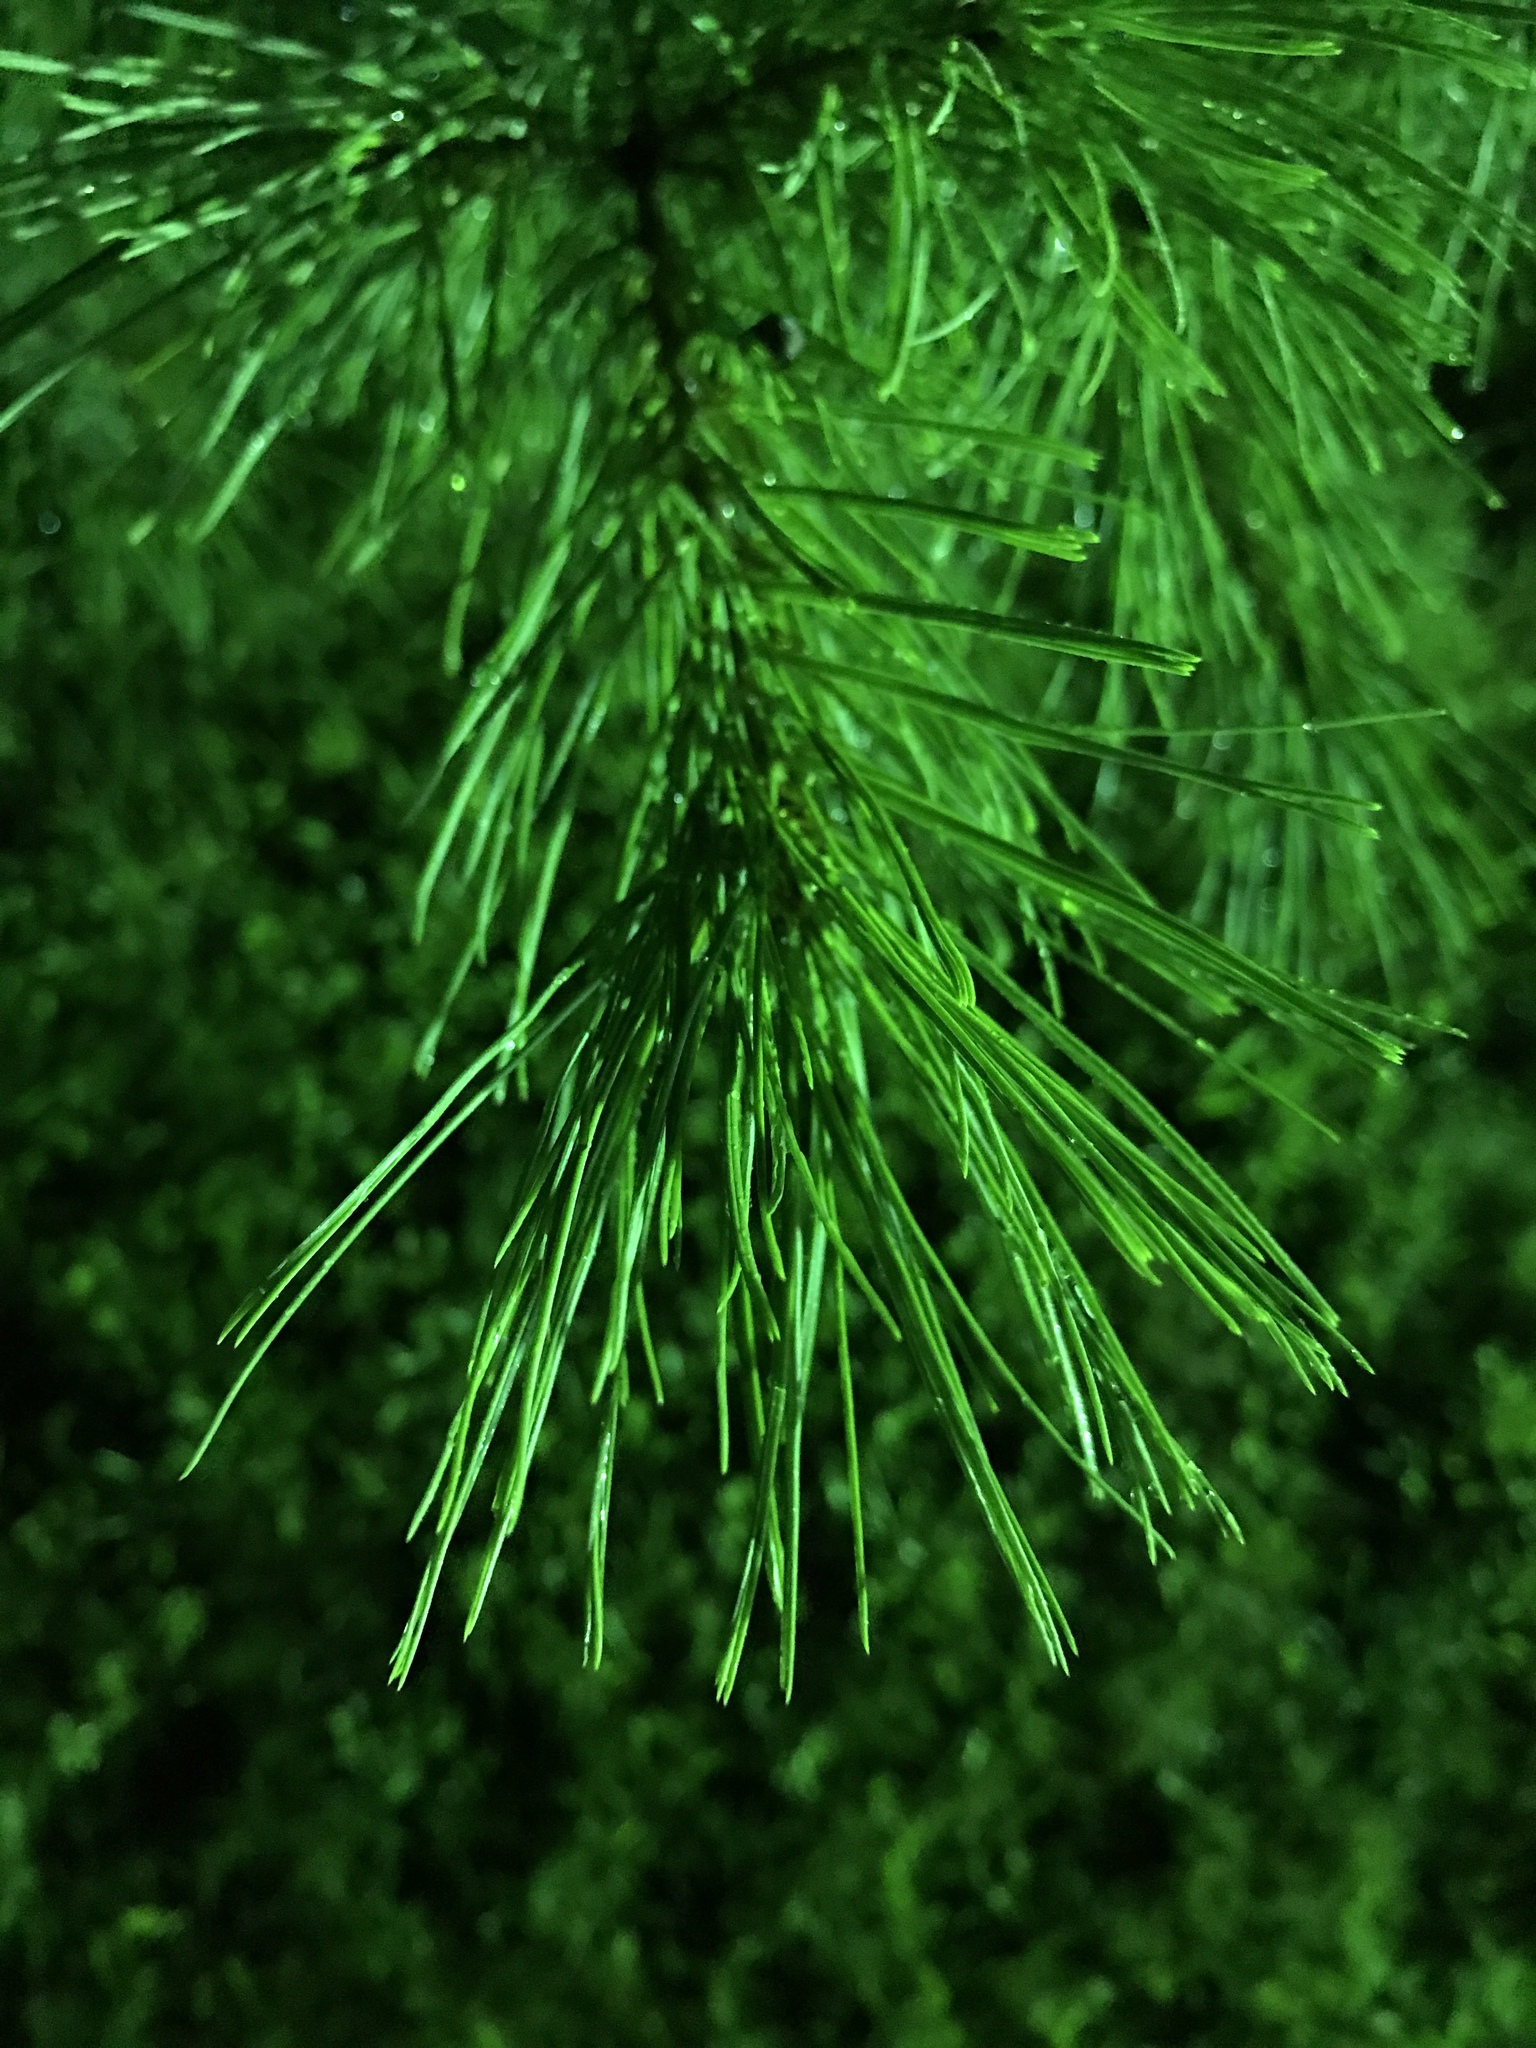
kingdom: Plantae
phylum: Tracheophyta
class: Pinopsida
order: Pinales
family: Pinaceae
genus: Pinus
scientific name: Pinus strobus
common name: Weymouth pine
